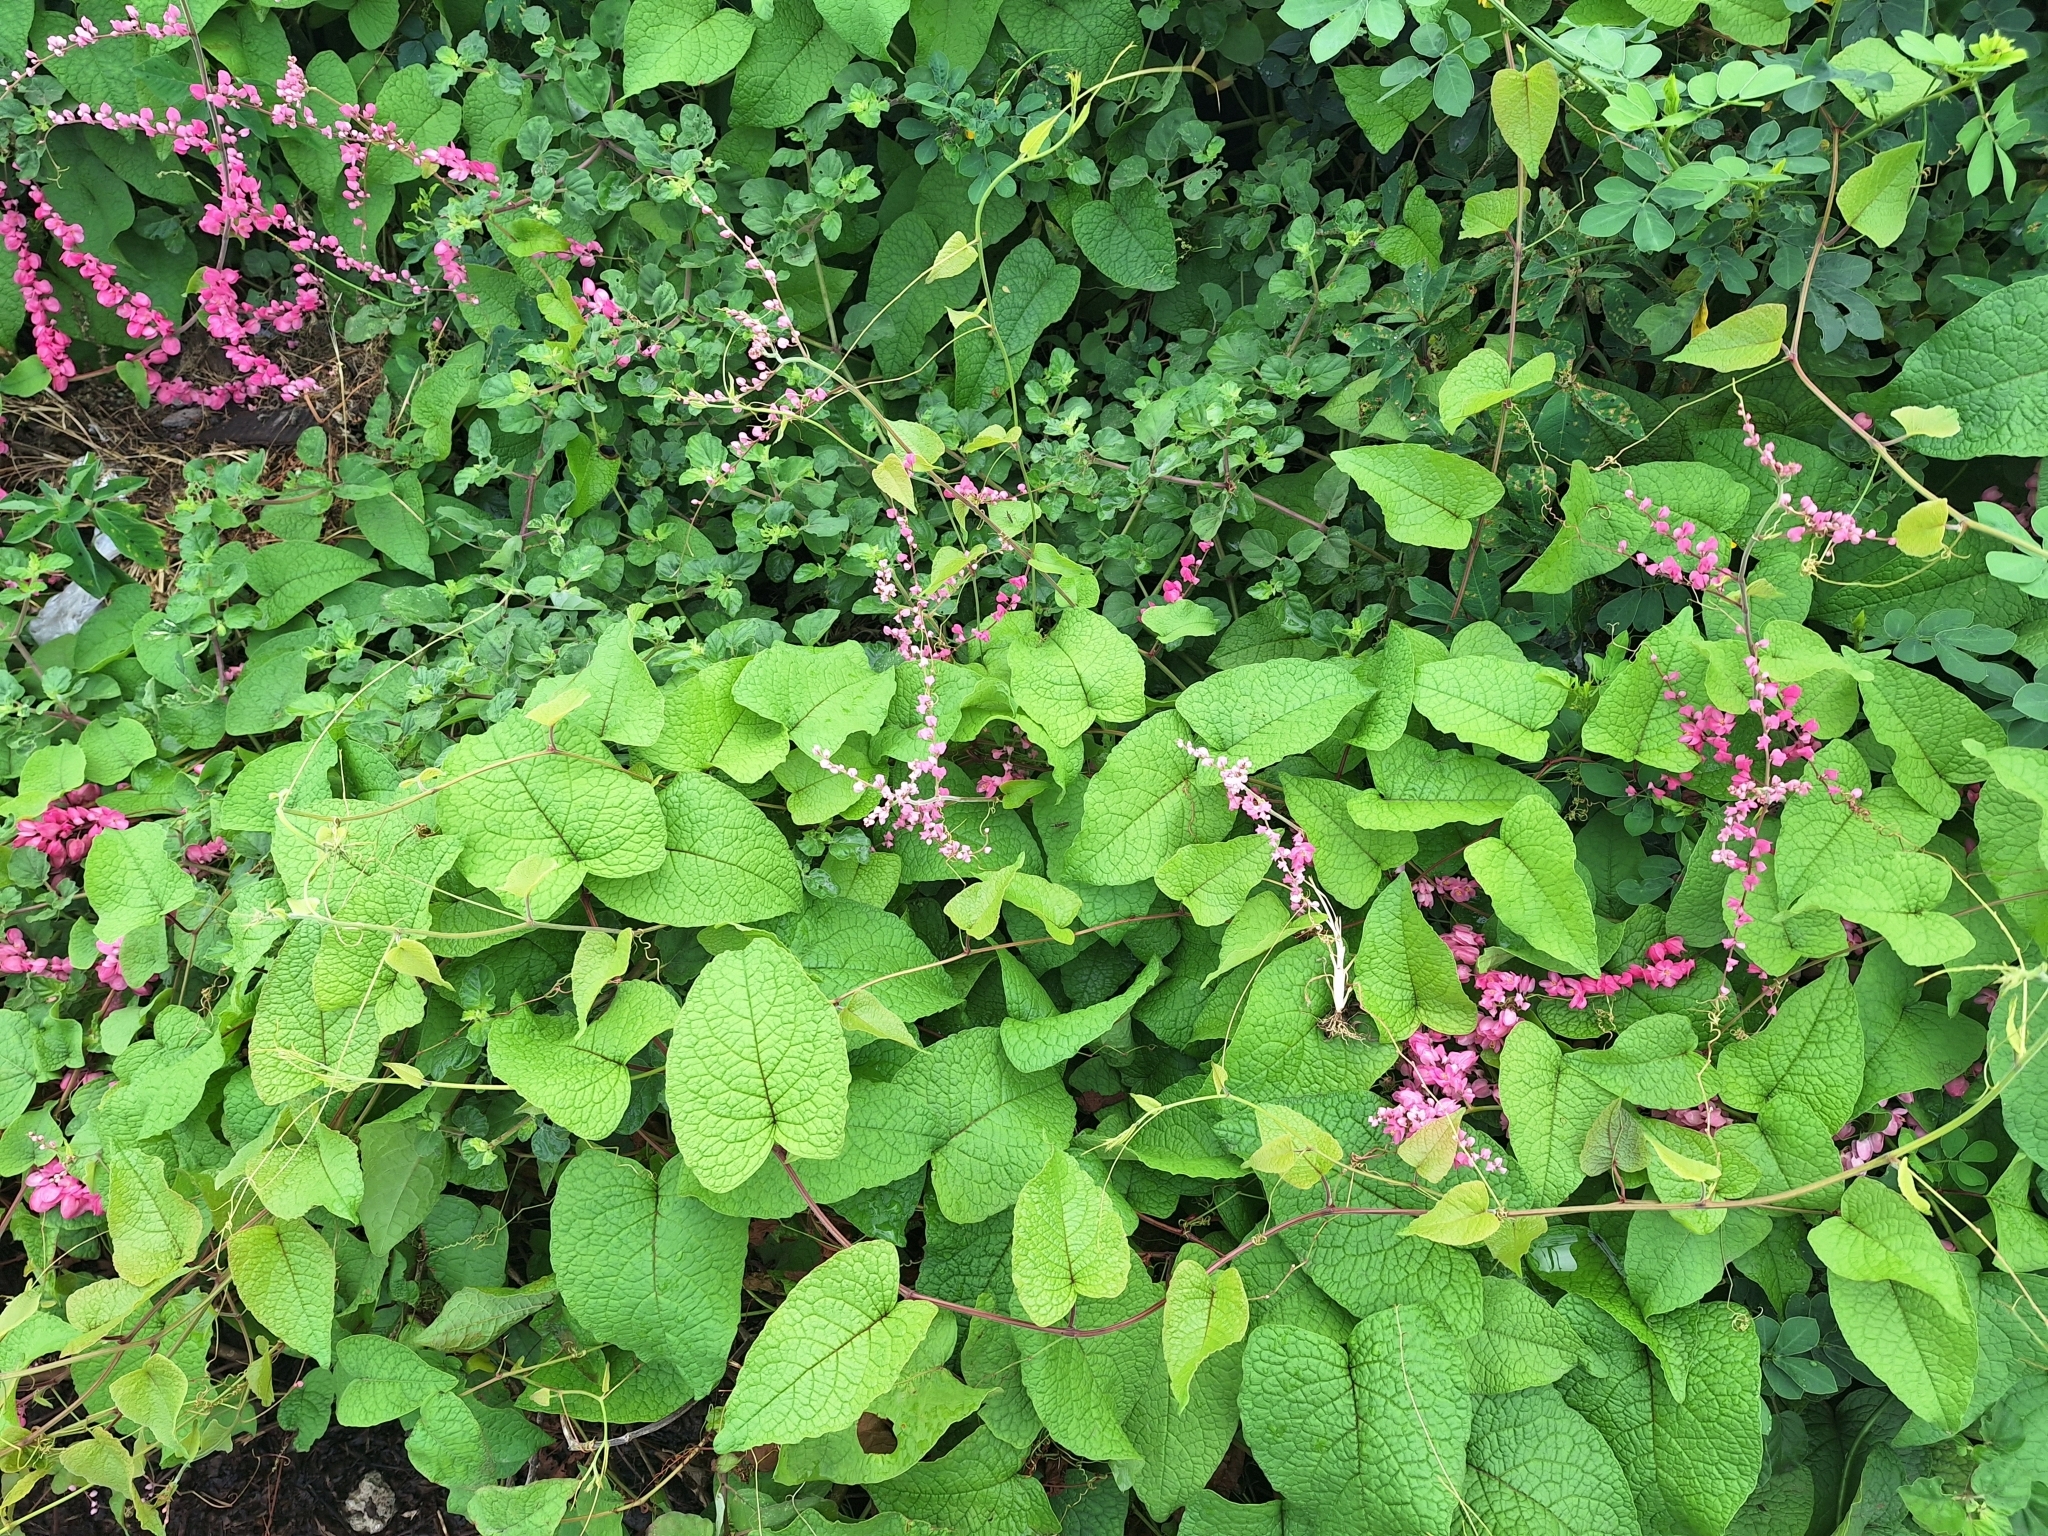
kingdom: Plantae
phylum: Tracheophyta
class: Magnoliopsida
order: Caryophyllales
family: Polygonaceae
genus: Antigonon
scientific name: Antigonon leptopus
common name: Coral vine
